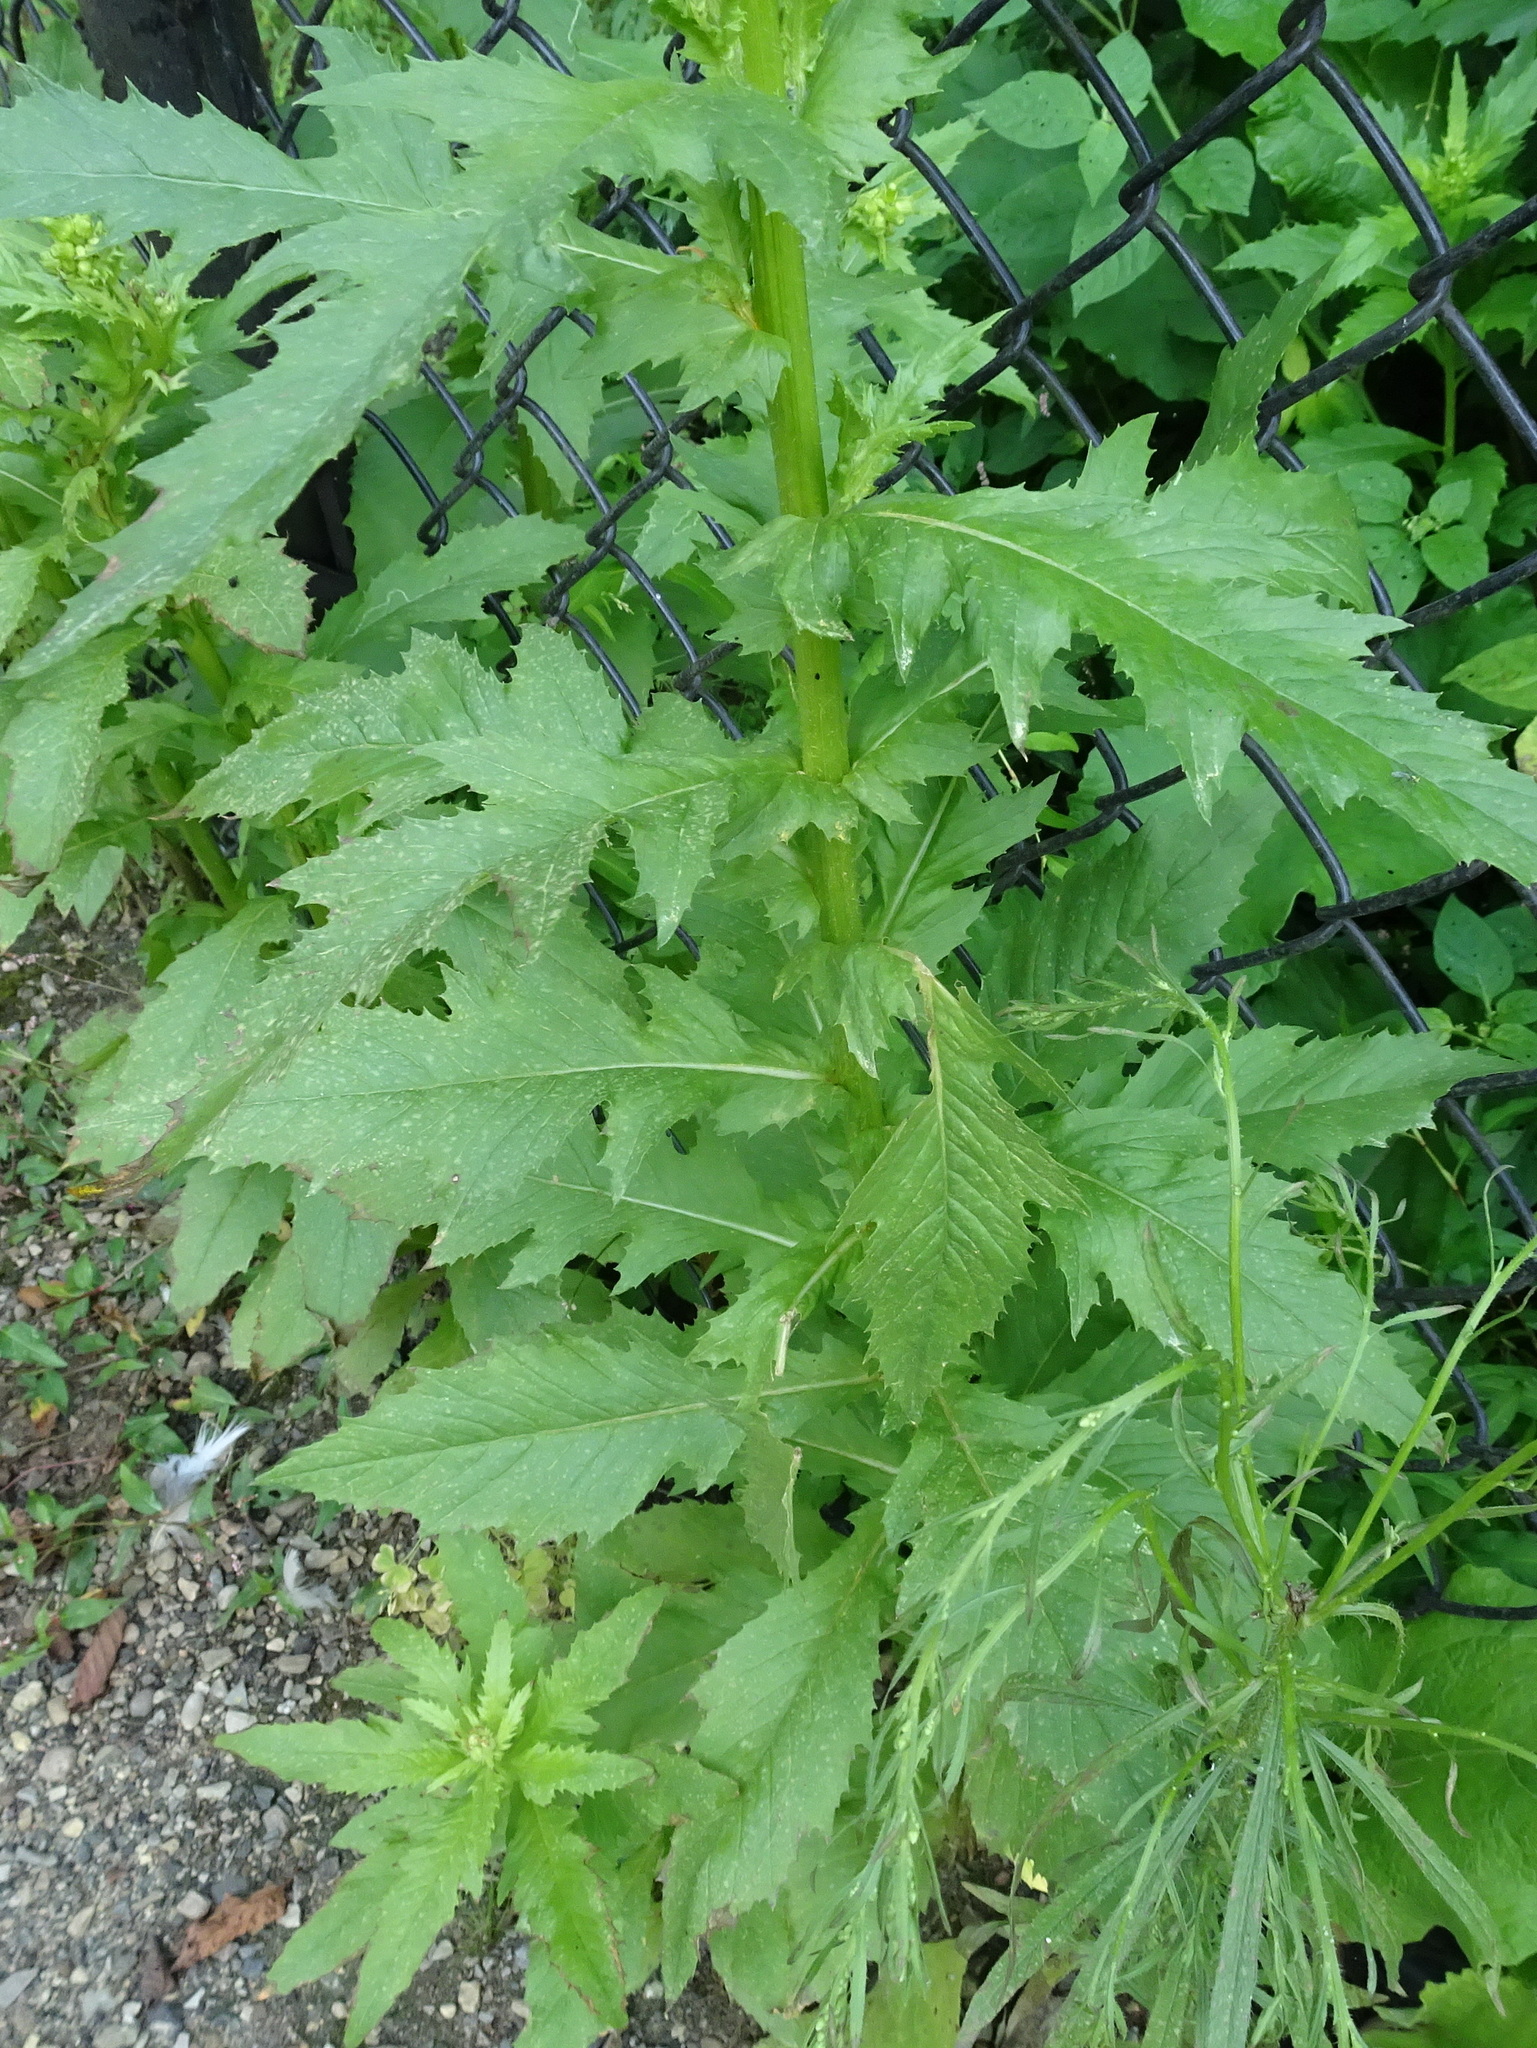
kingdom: Plantae
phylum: Tracheophyta
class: Magnoliopsida
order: Asterales
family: Asteraceae
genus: Erechtites
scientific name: Erechtites hieraciifolius
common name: American burnweed
